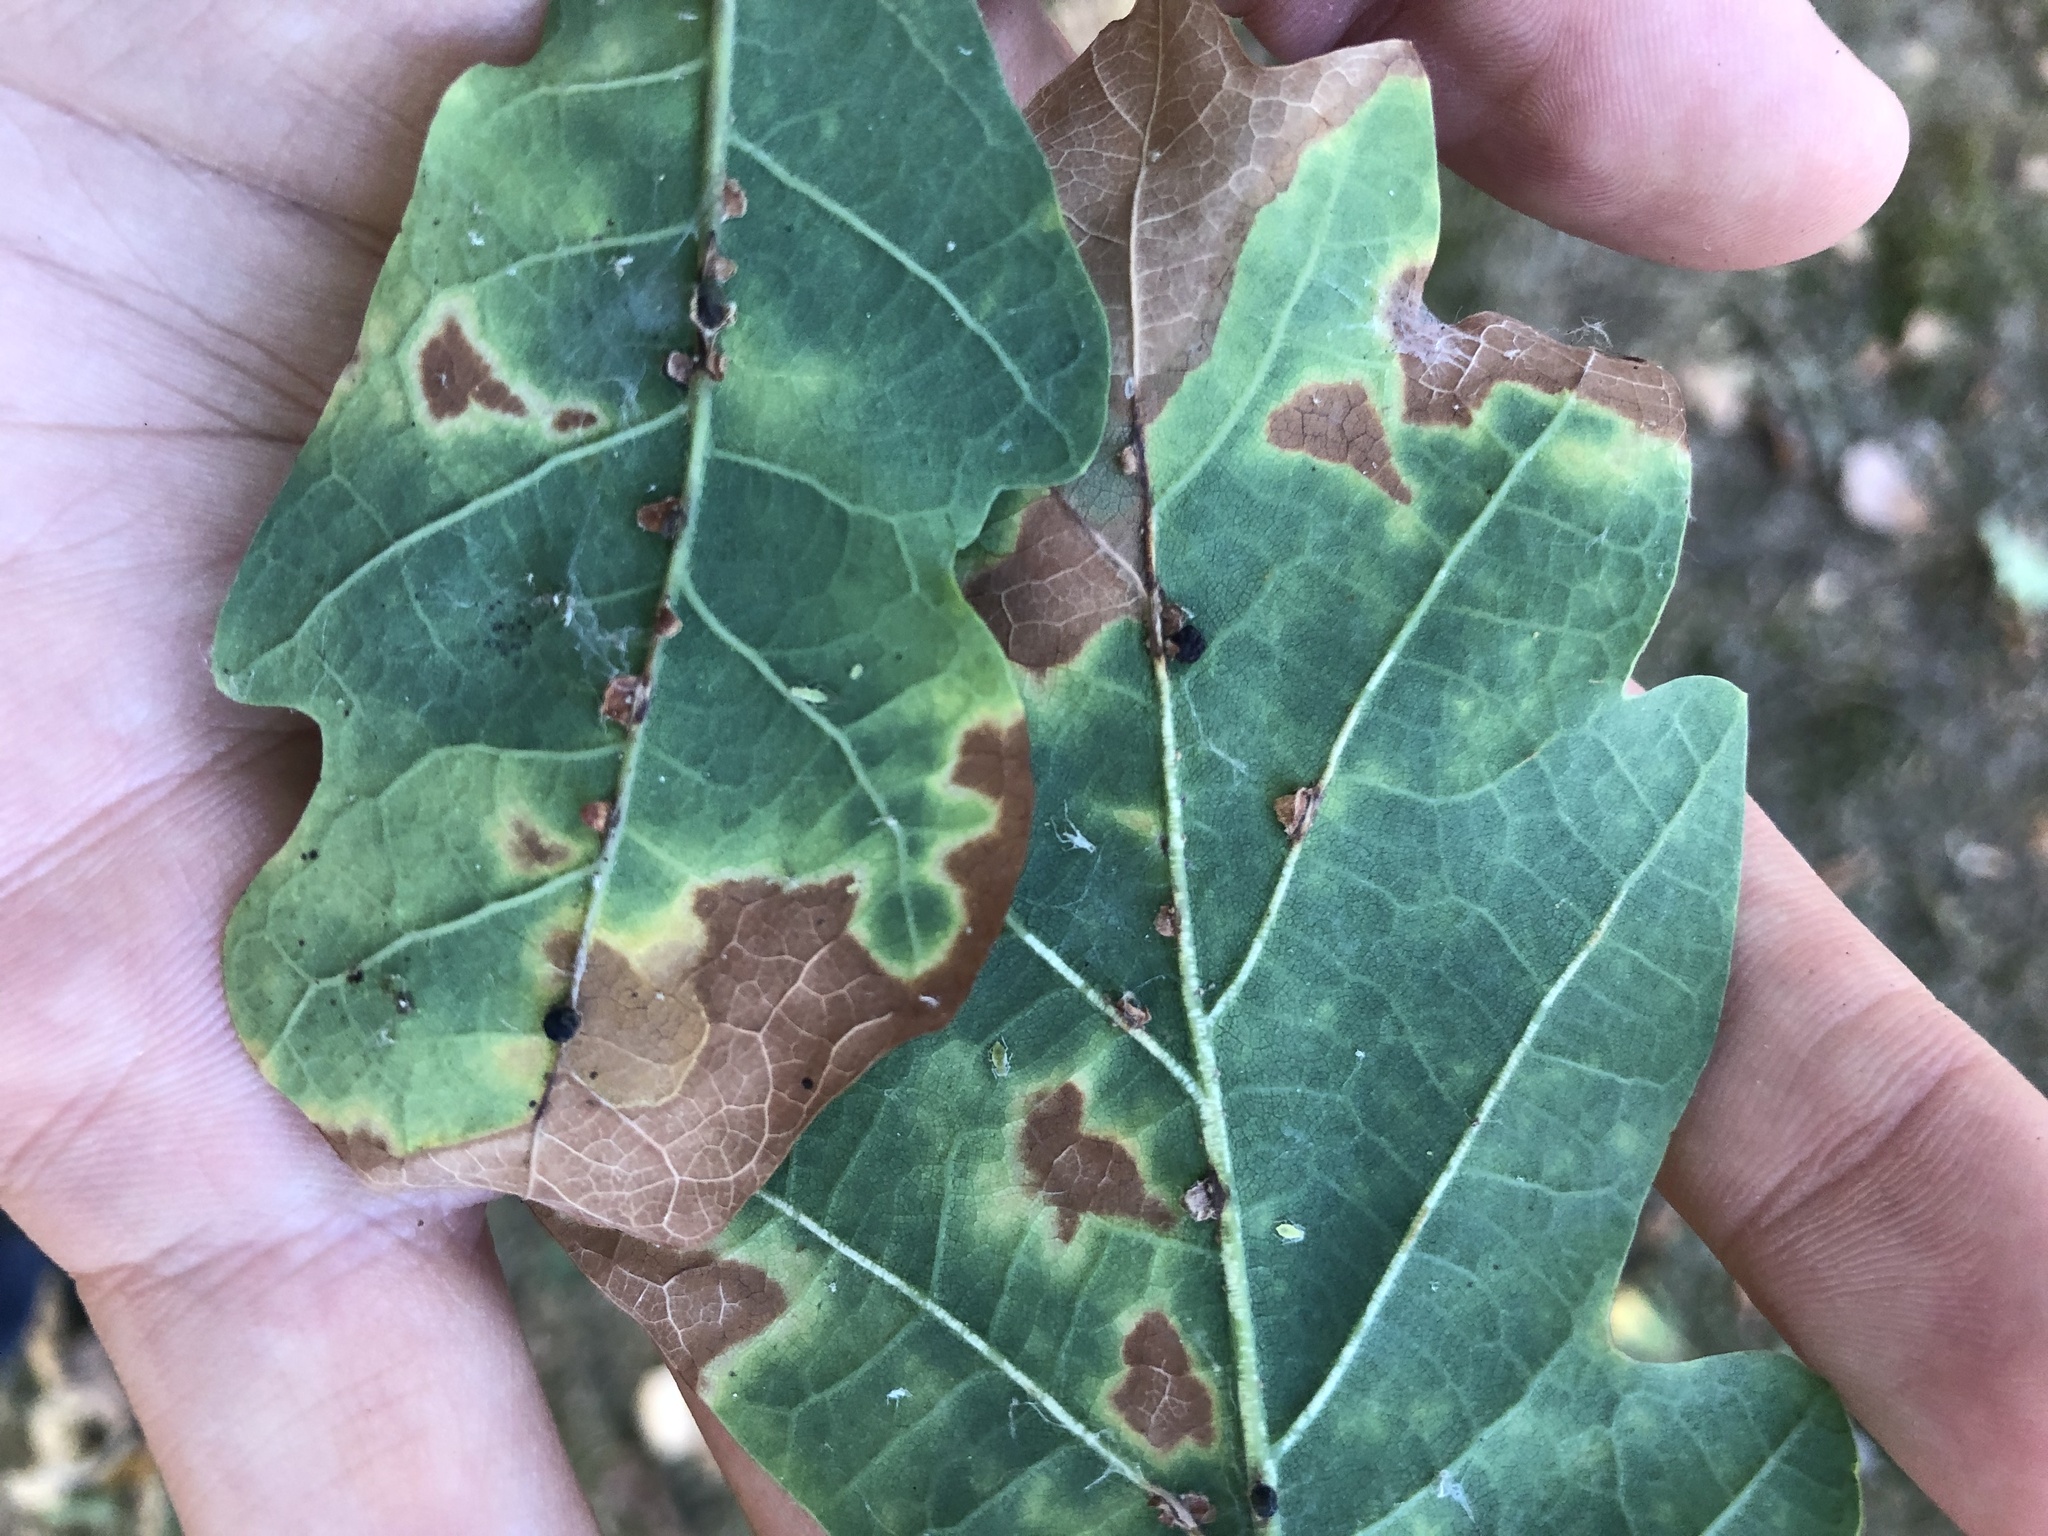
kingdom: Animalia
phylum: Arthropoda
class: Insecta
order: Hymenoptera
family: Cynipidae
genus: Neuroterus
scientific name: Neuroterus anthracinus
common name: Oyster gall
